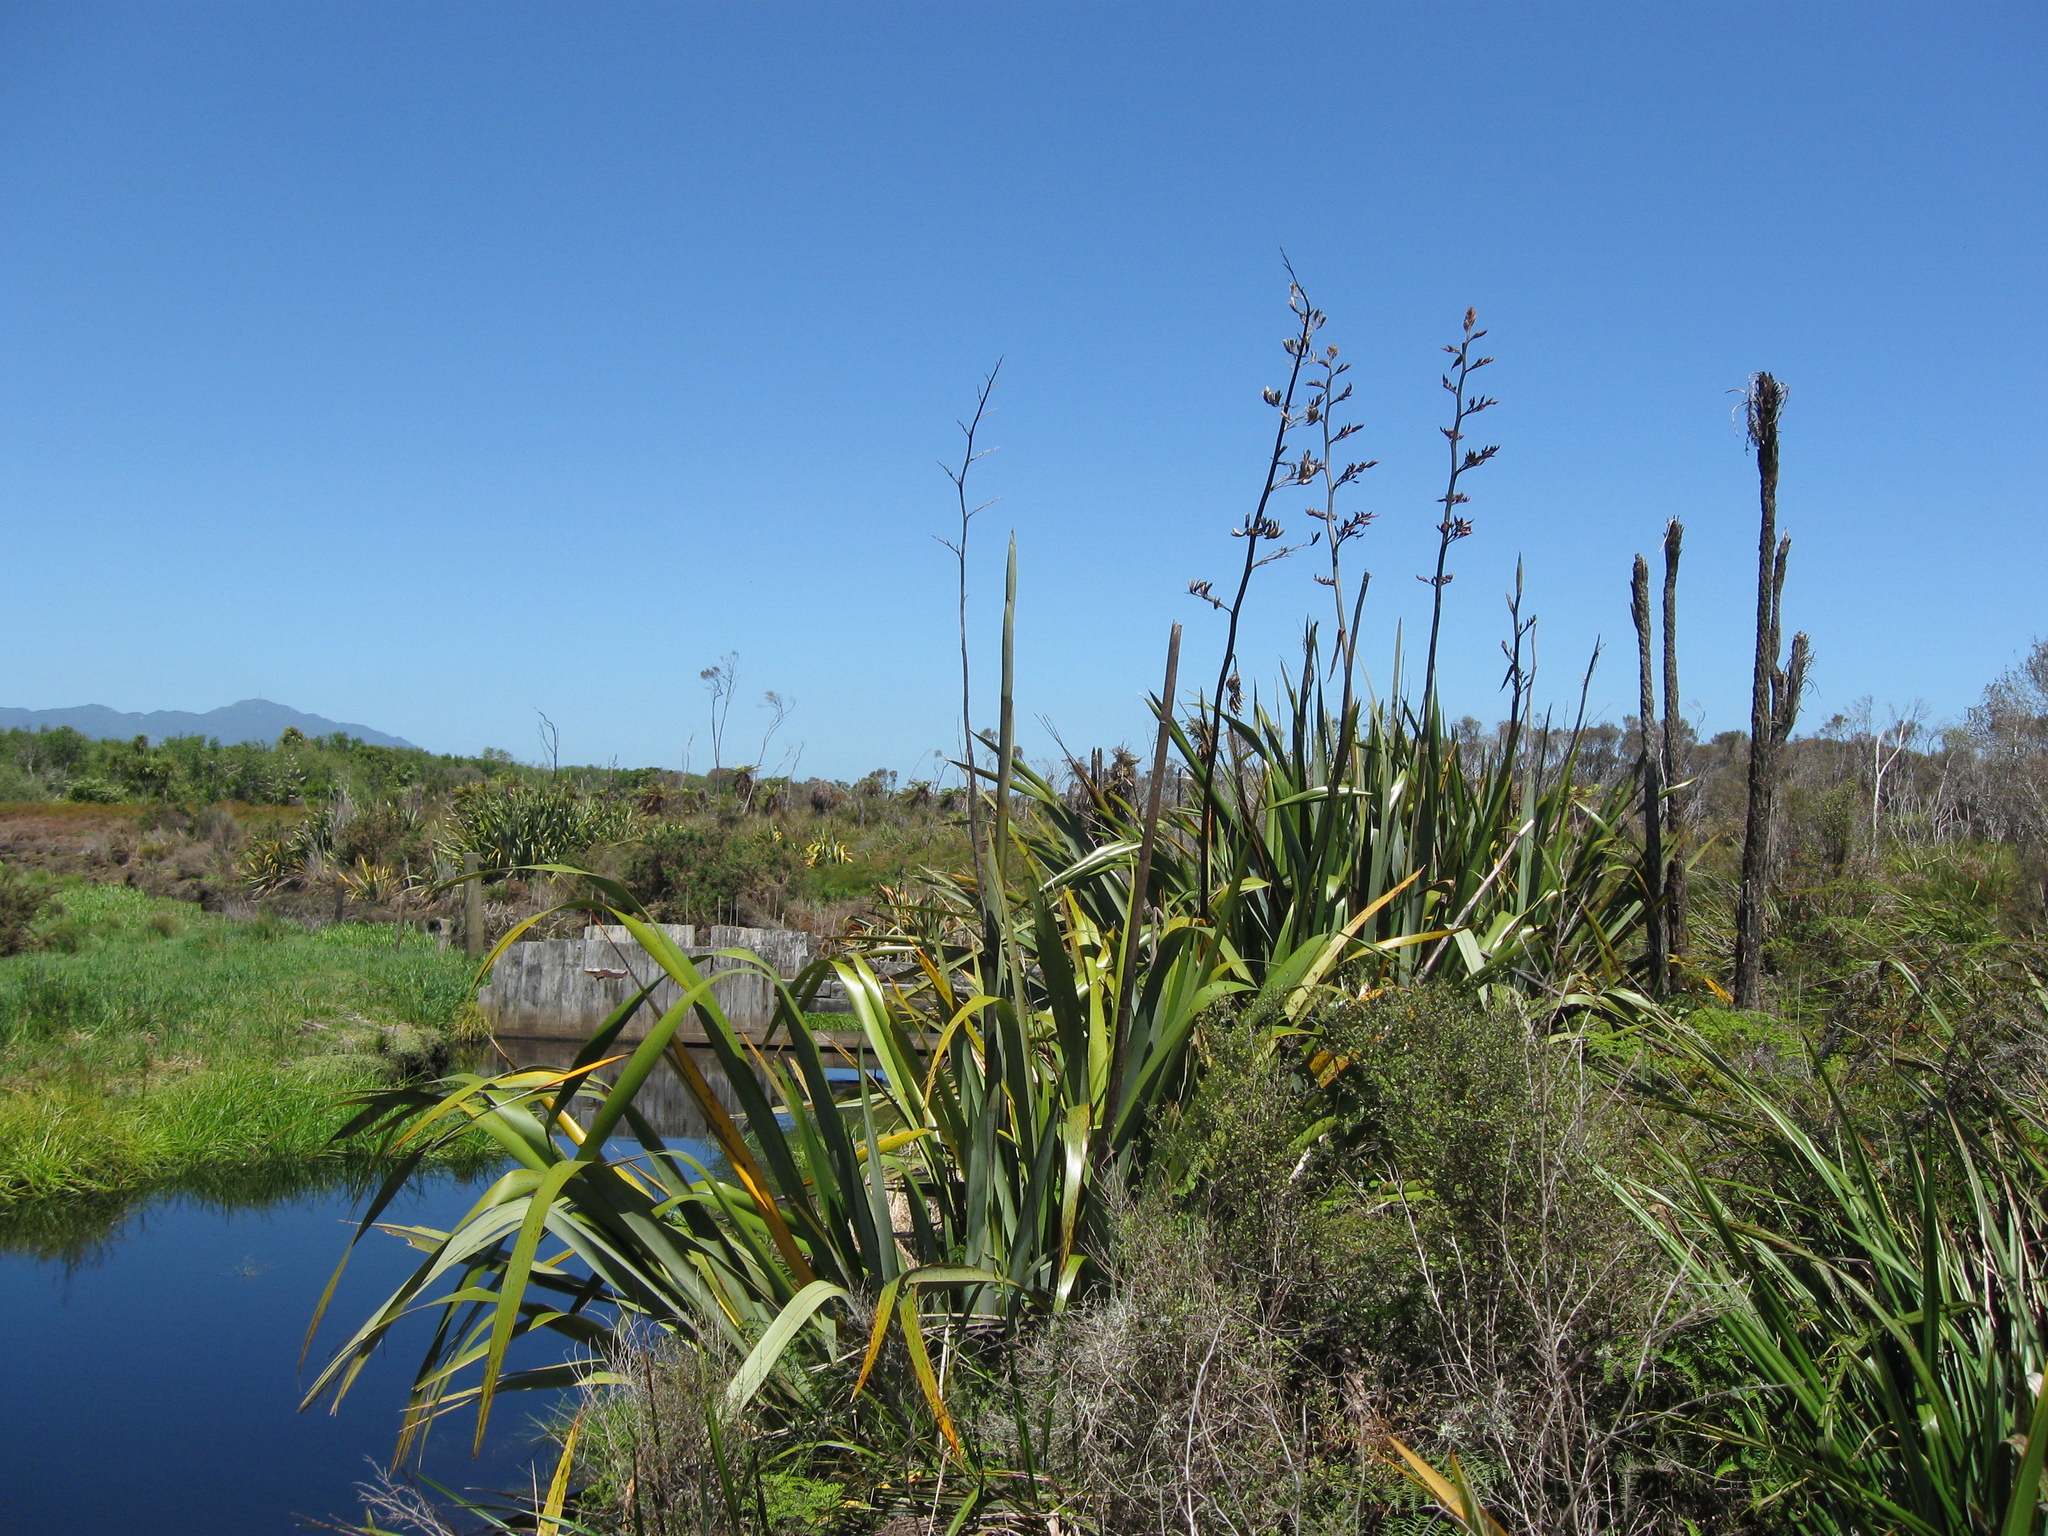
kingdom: Plantae
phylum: Tracheophyta
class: Liliopsida
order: Asparagales
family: Asphodelaceae
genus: Phormium
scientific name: Phormium tenax
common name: New zealand flax
